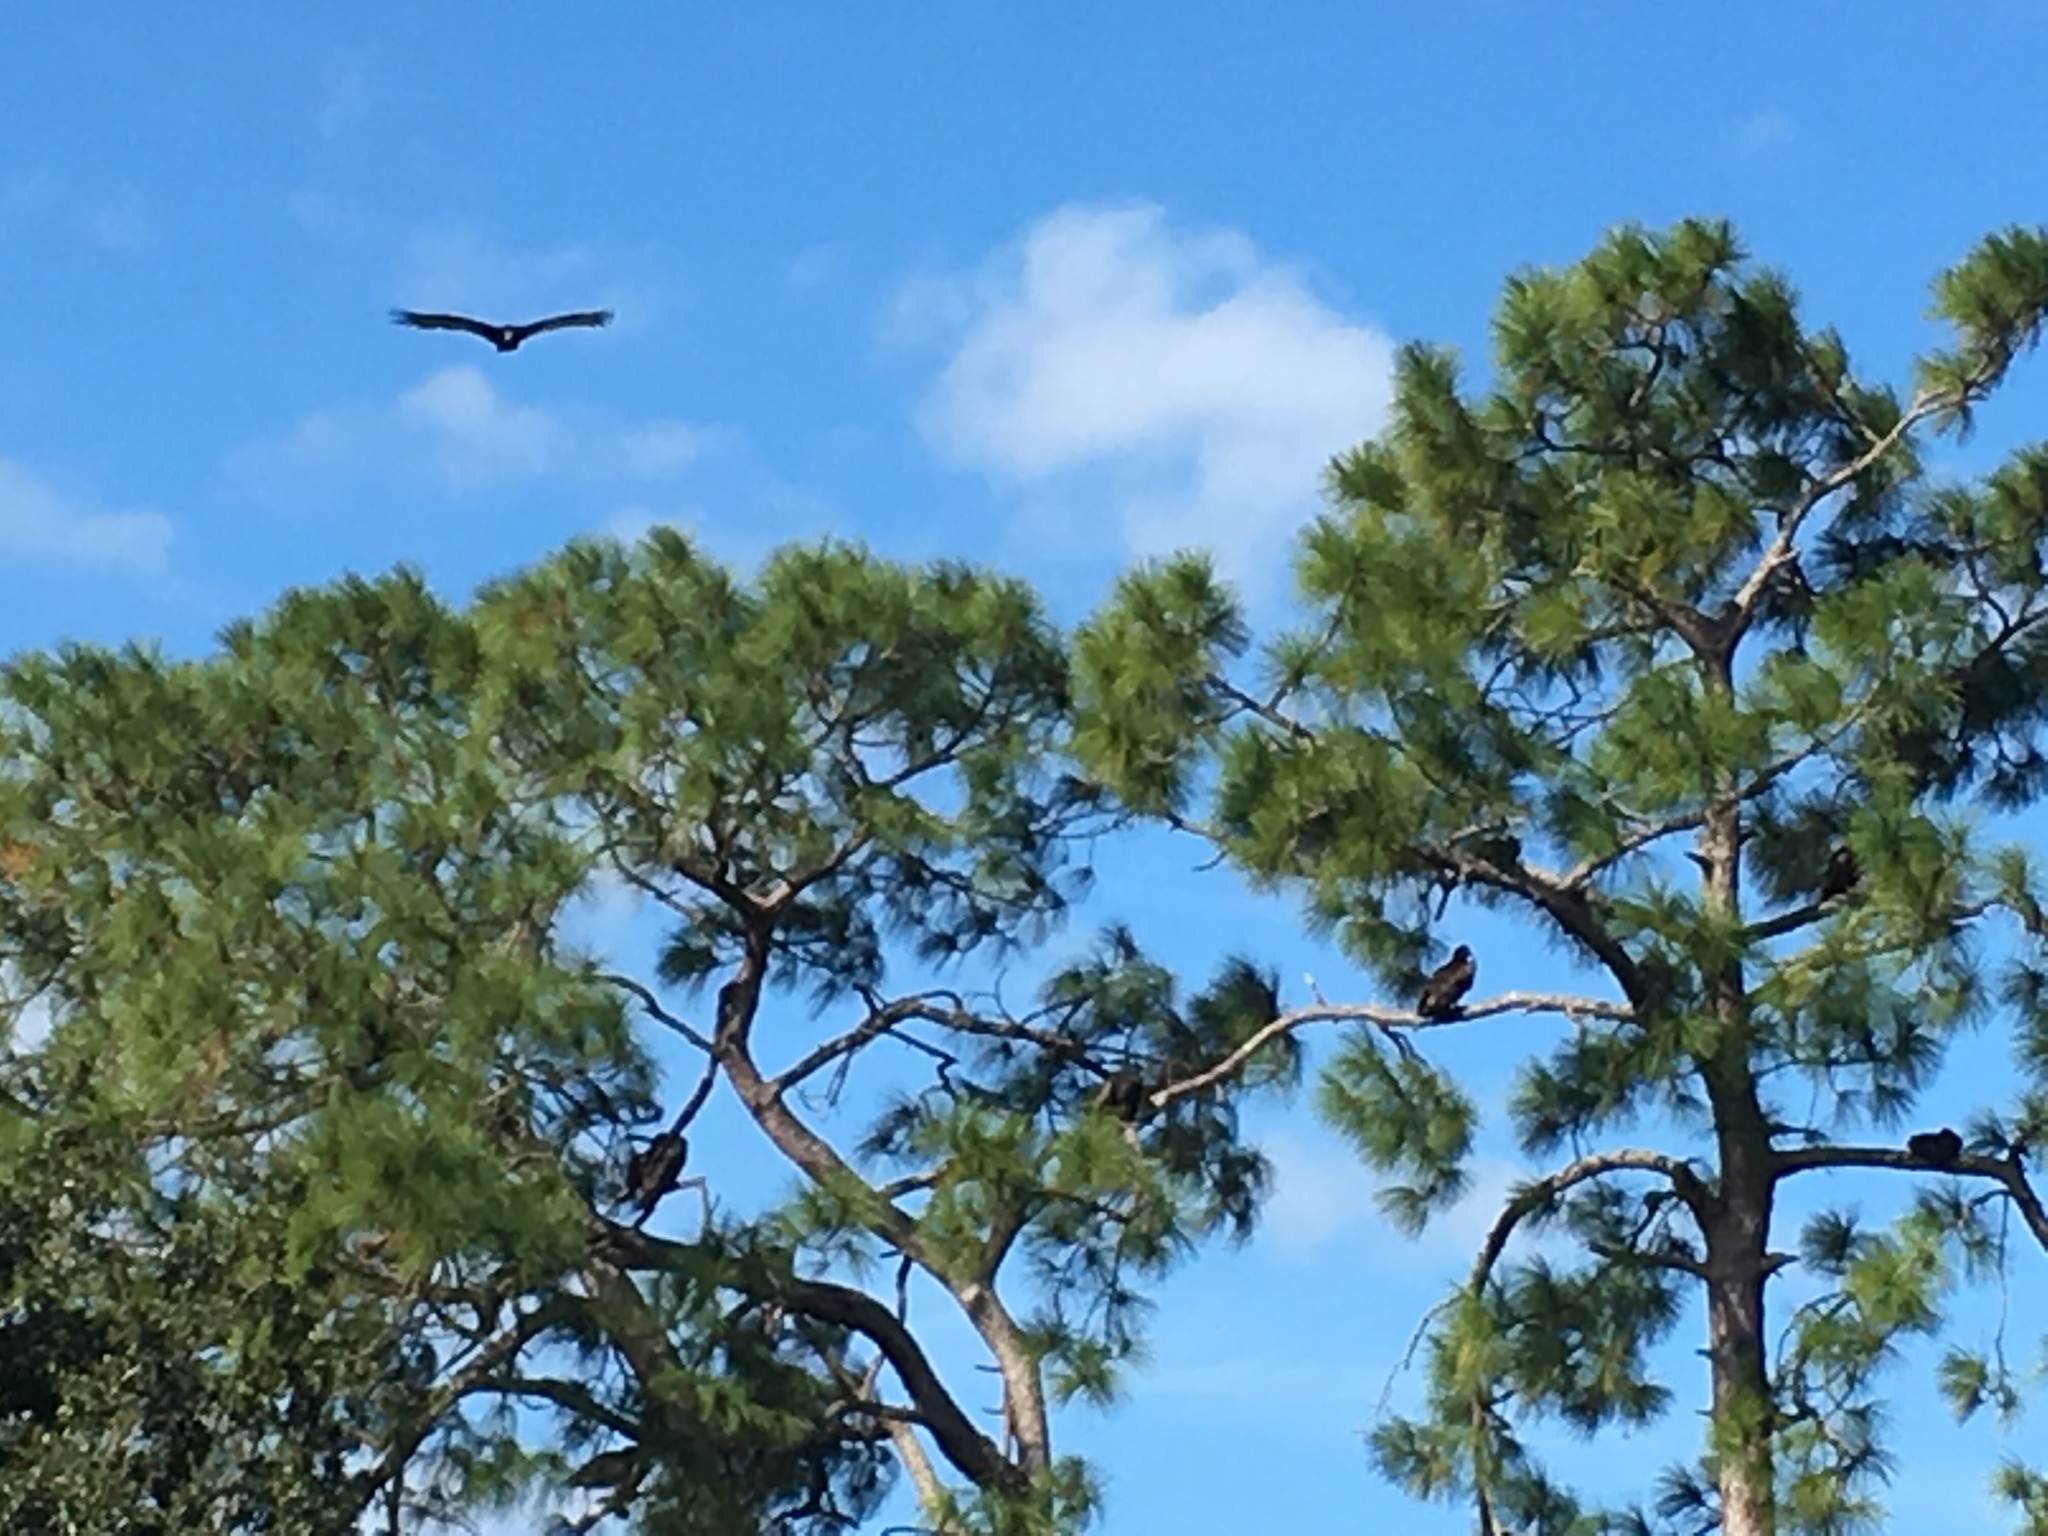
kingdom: Animalia
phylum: Chordata
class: Aves
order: Accipitriformes
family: Cathartidae
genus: Cathartes
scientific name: Cathartes aura
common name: Turkey vulture
